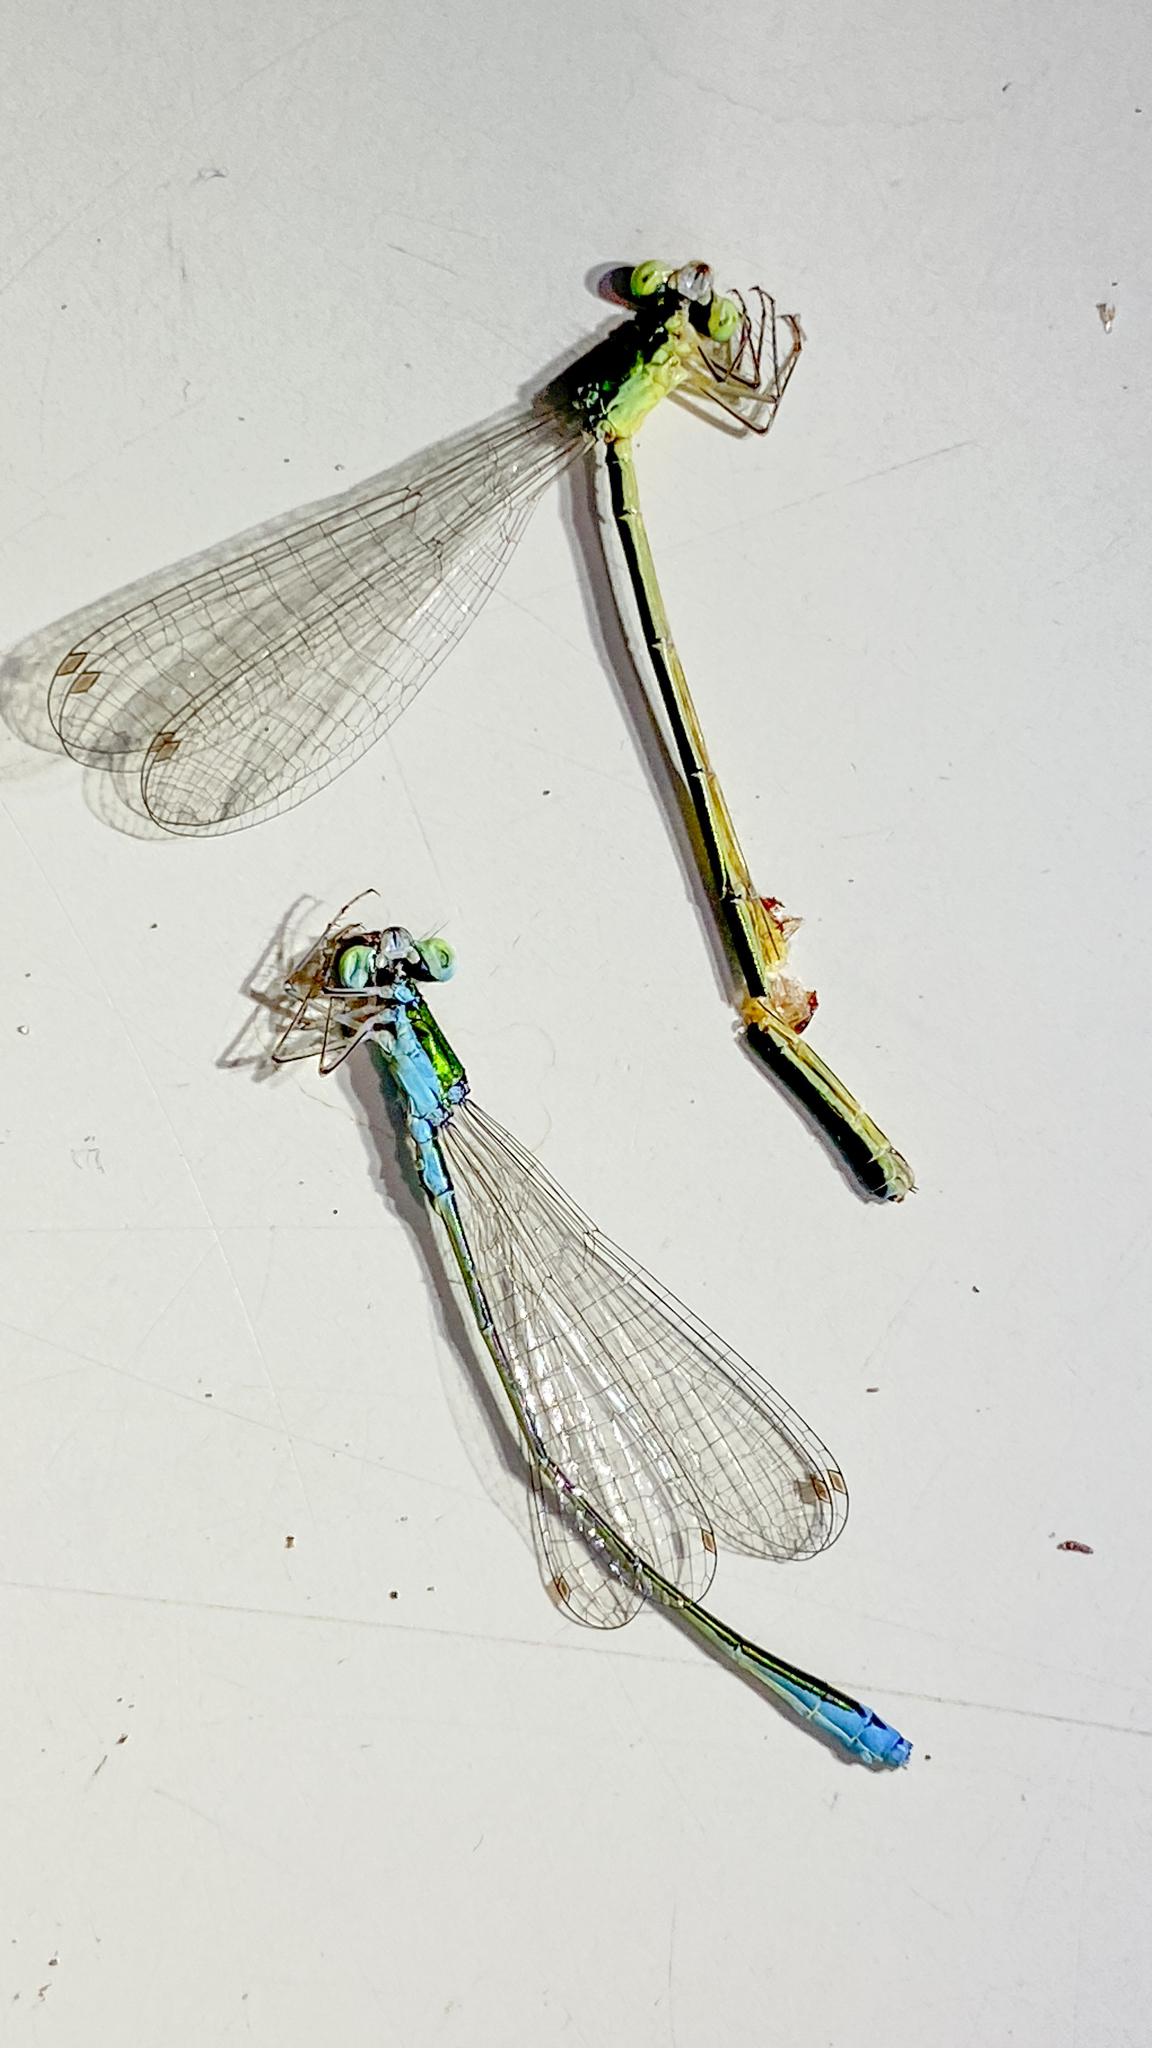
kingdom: Animalia
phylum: Arthropoda
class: Insecta
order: Odonata
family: Coenagrionidae
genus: Nehalennia
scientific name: Nehalennia irene
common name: Sedge sprite
